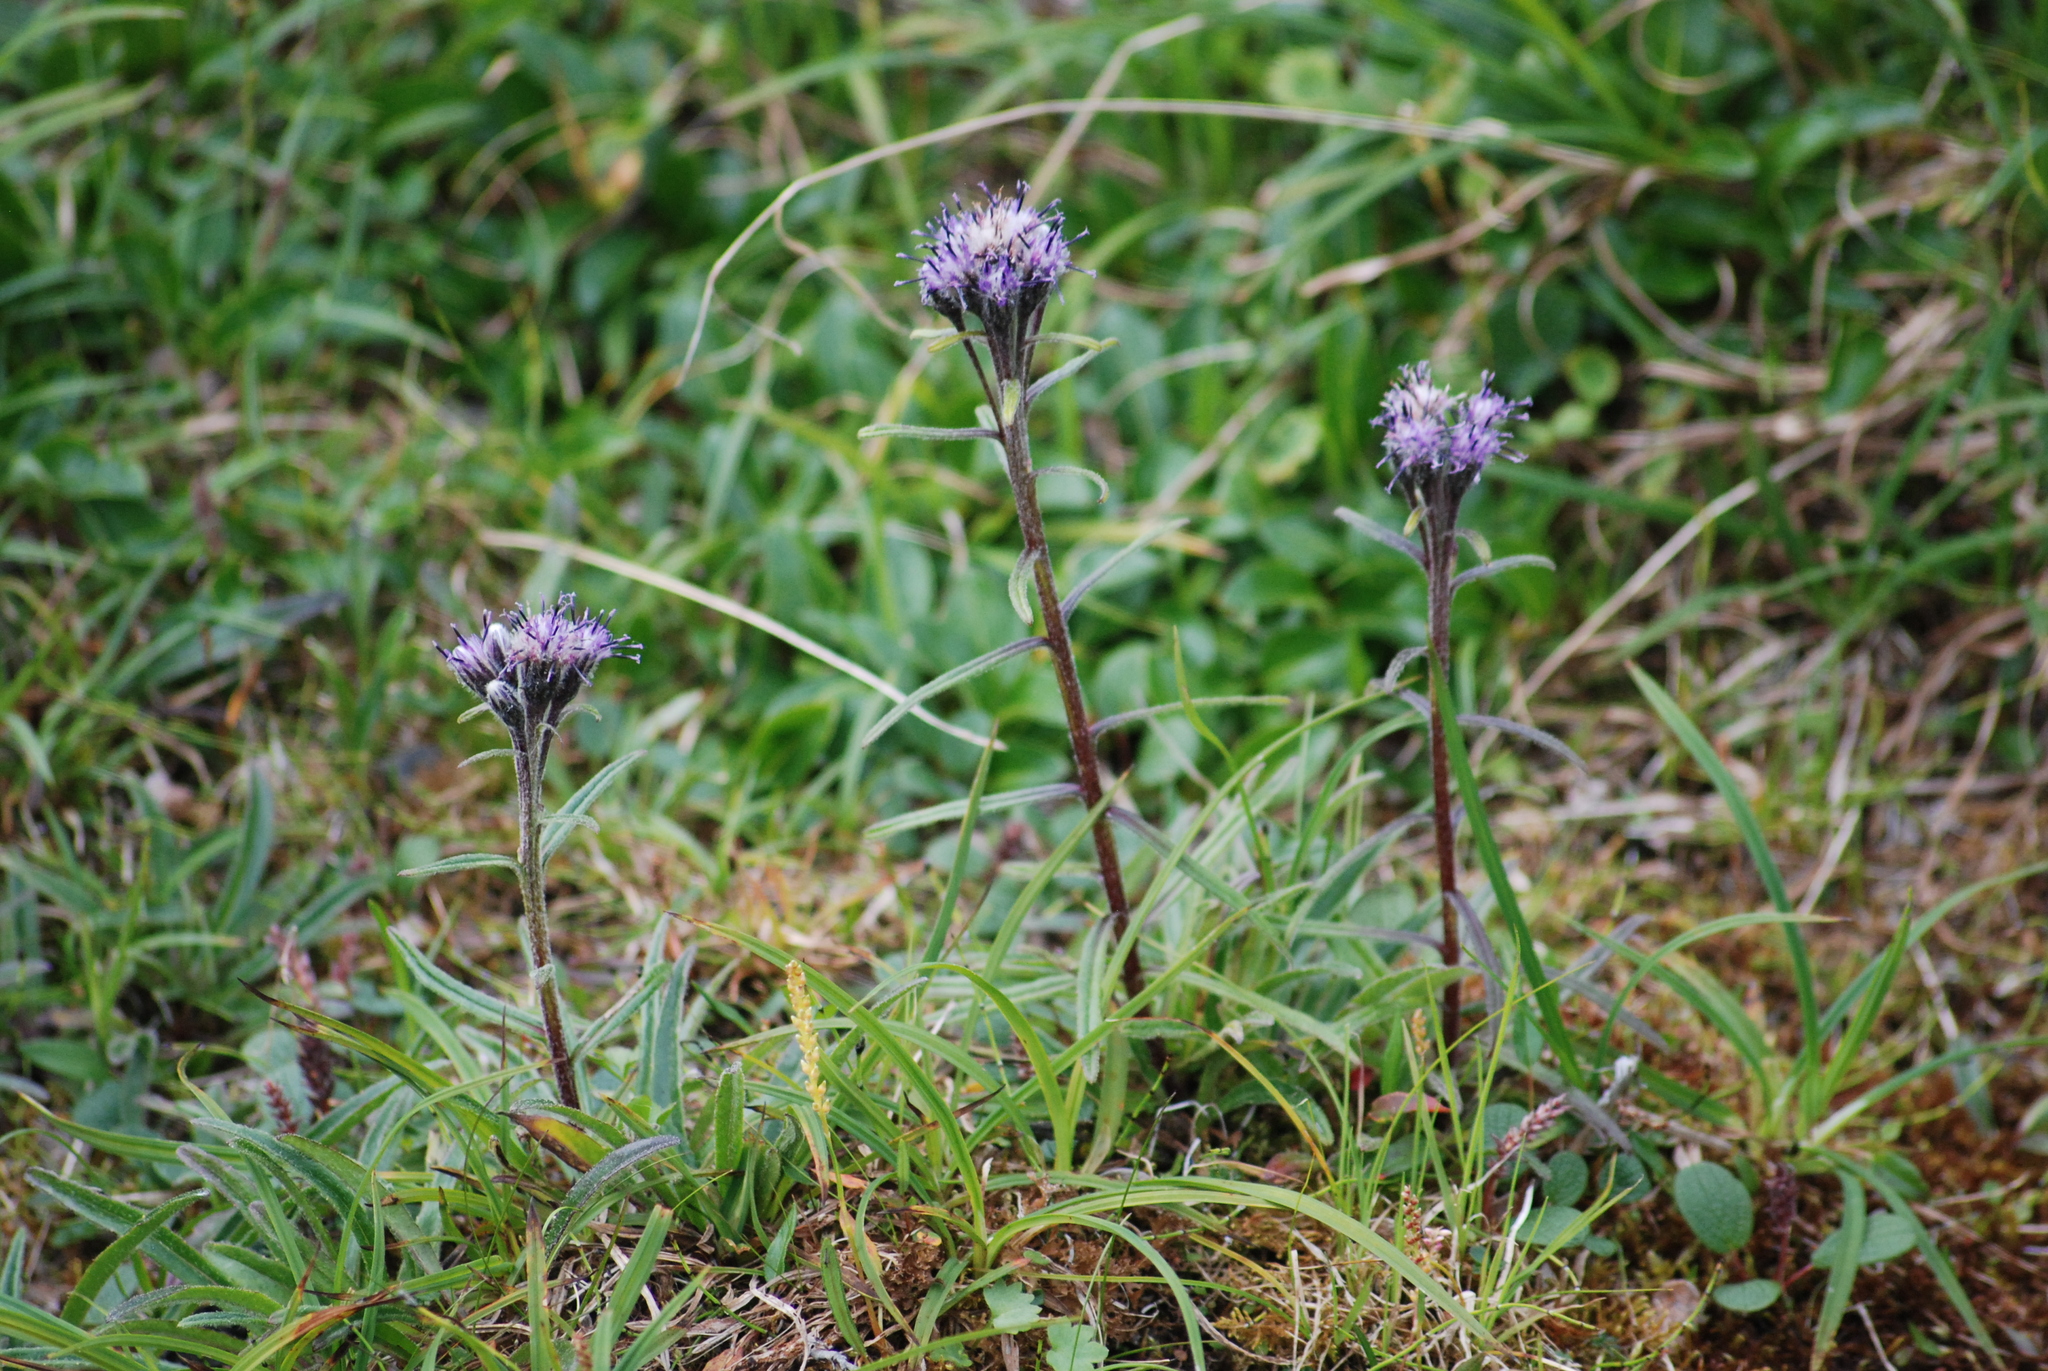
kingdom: Plantae
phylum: Tracheophyta
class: Magnoliopsida
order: Asterales
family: Asteraceae
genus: Saussurea
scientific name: Saussurea angustifolia
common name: Common saussurea
